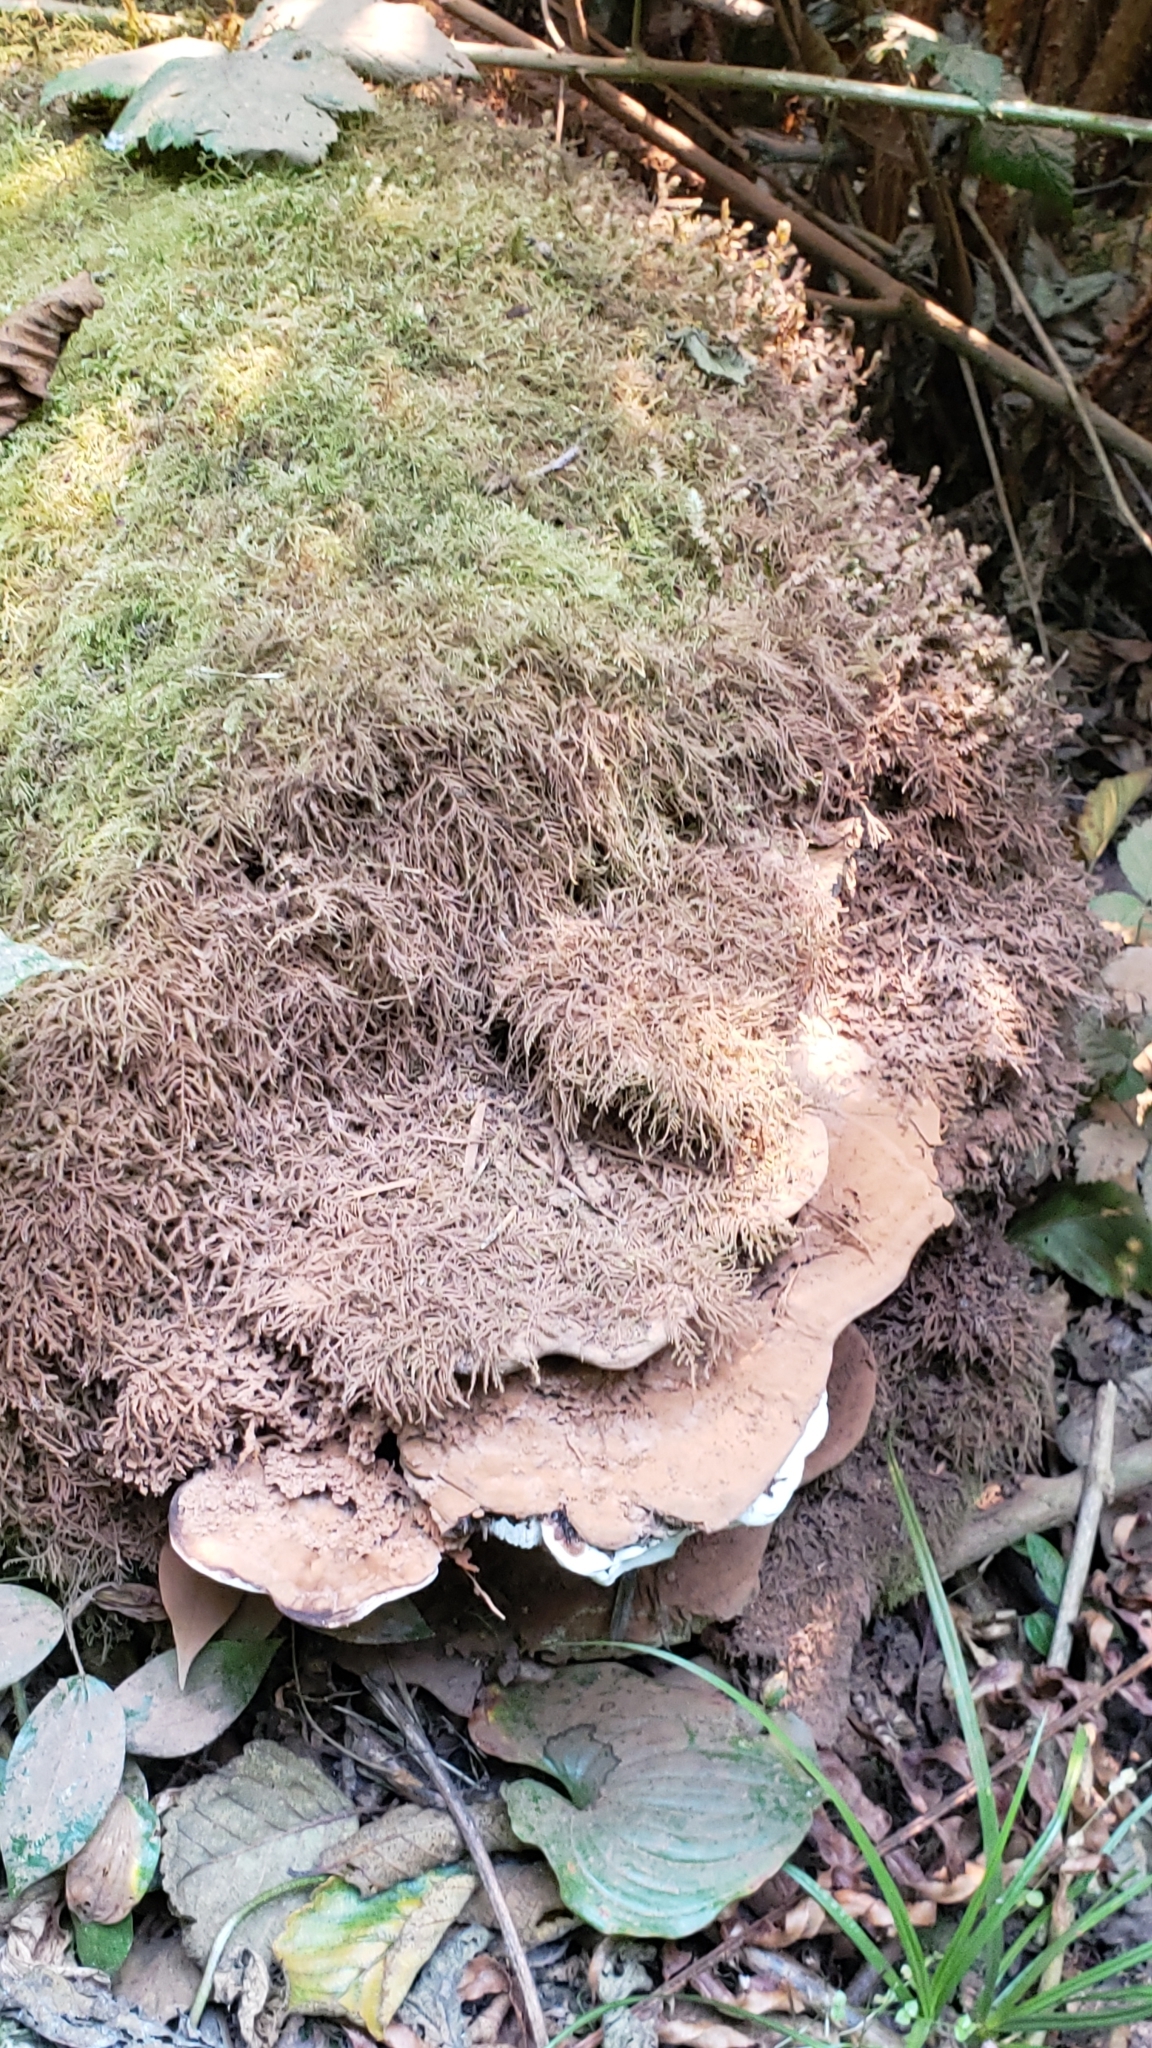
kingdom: Fungi
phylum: Basidiomycota
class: Agaricomycetes
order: Polyporales
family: Polyporaceae
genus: Ganoderma
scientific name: Ganoderma brownii
